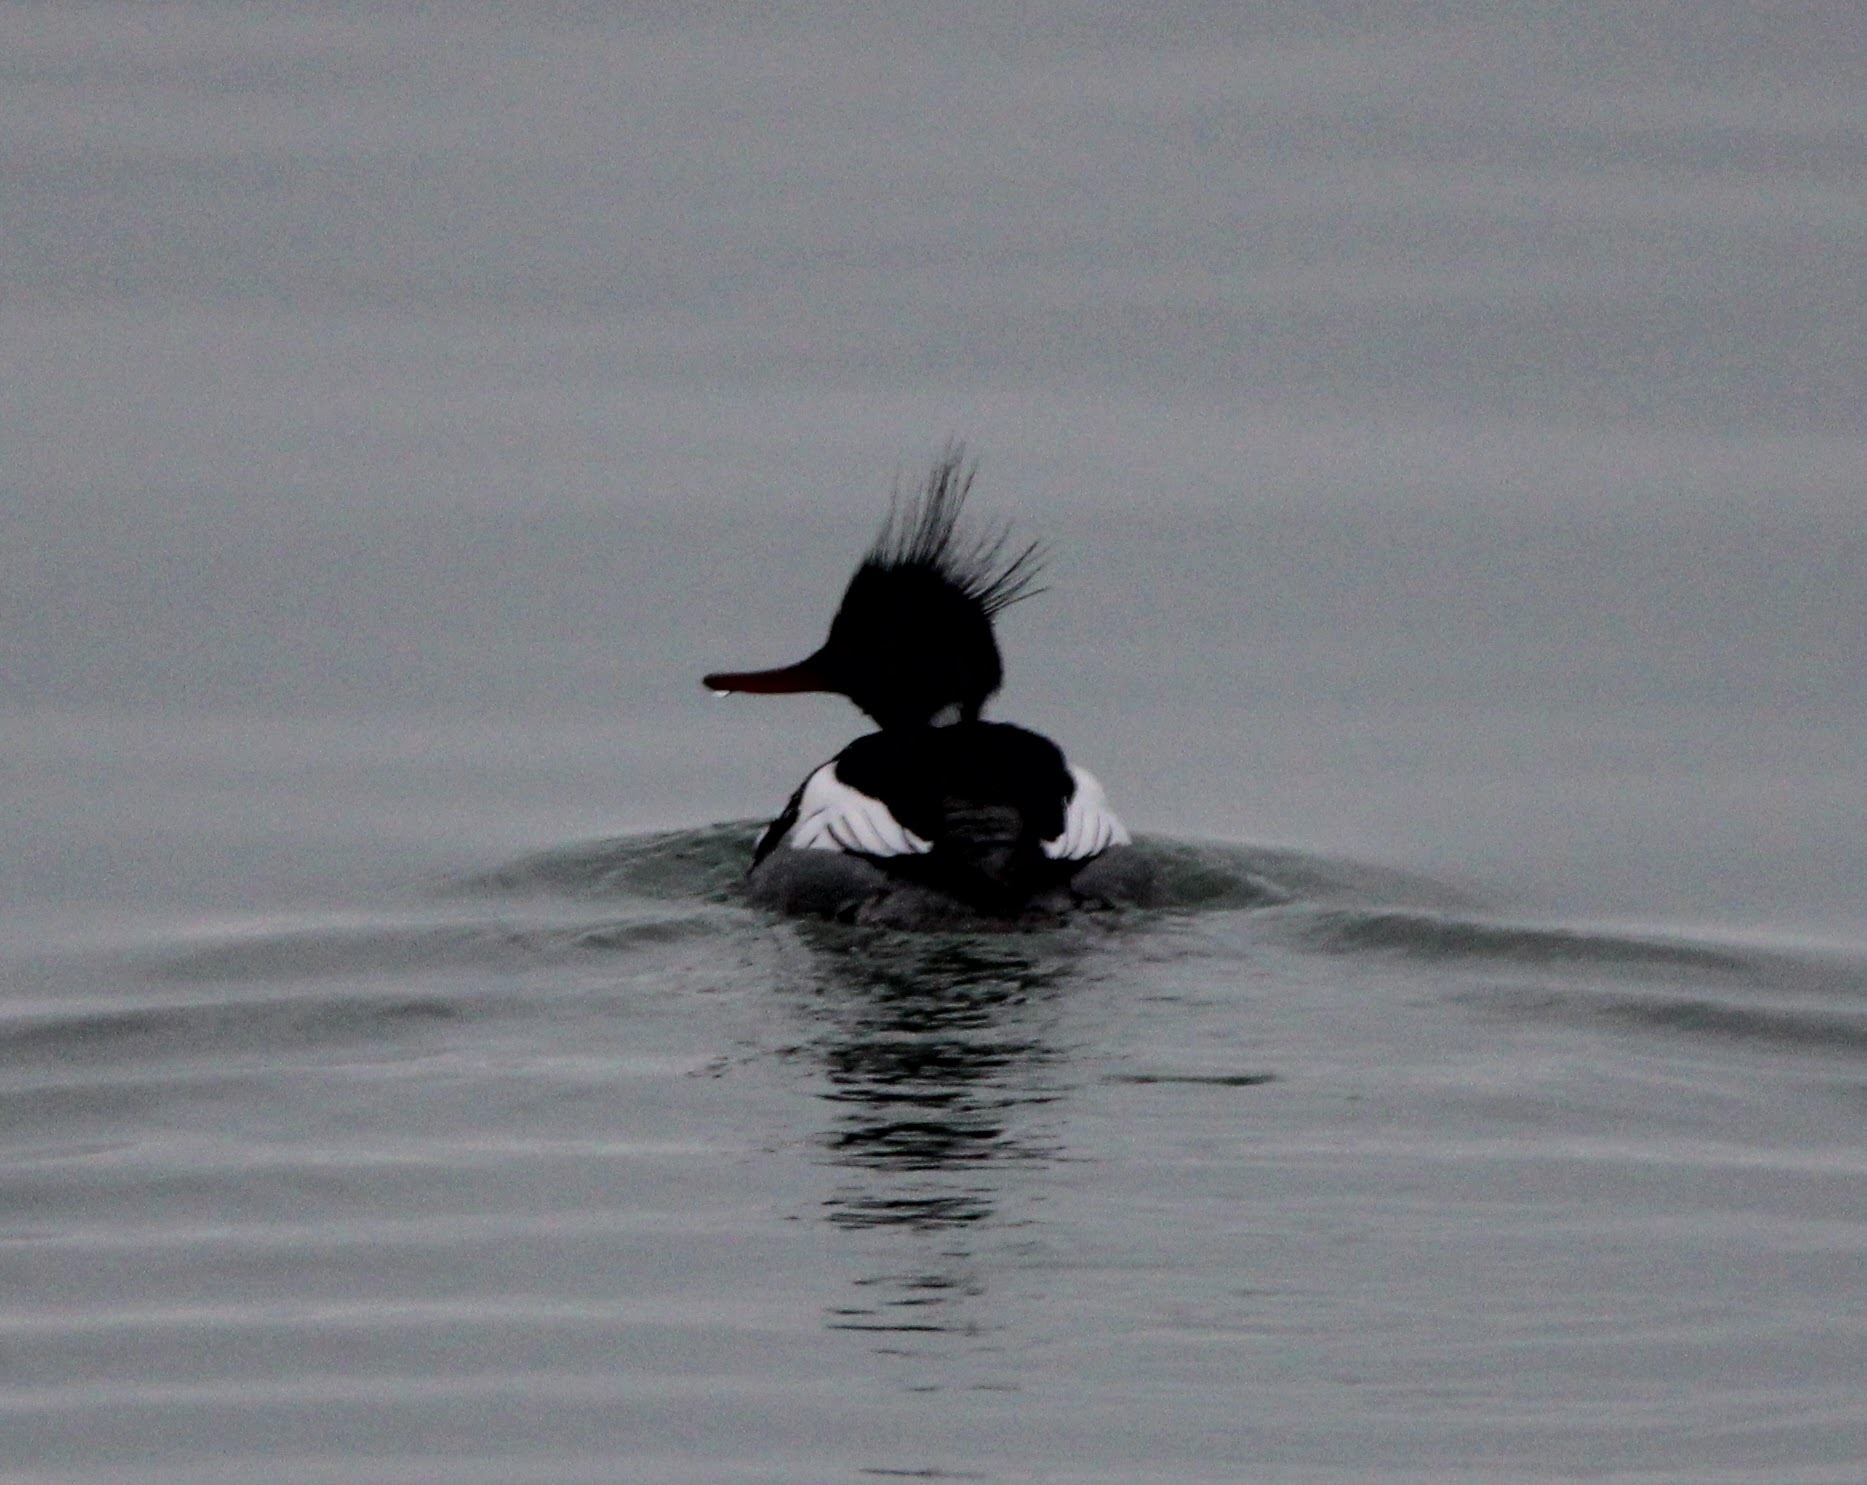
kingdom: Animalia
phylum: Chordata
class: Aves
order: Anseriformes
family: Anatidae
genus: Mergus
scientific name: Mergus serrator
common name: Red-breasted merganser
